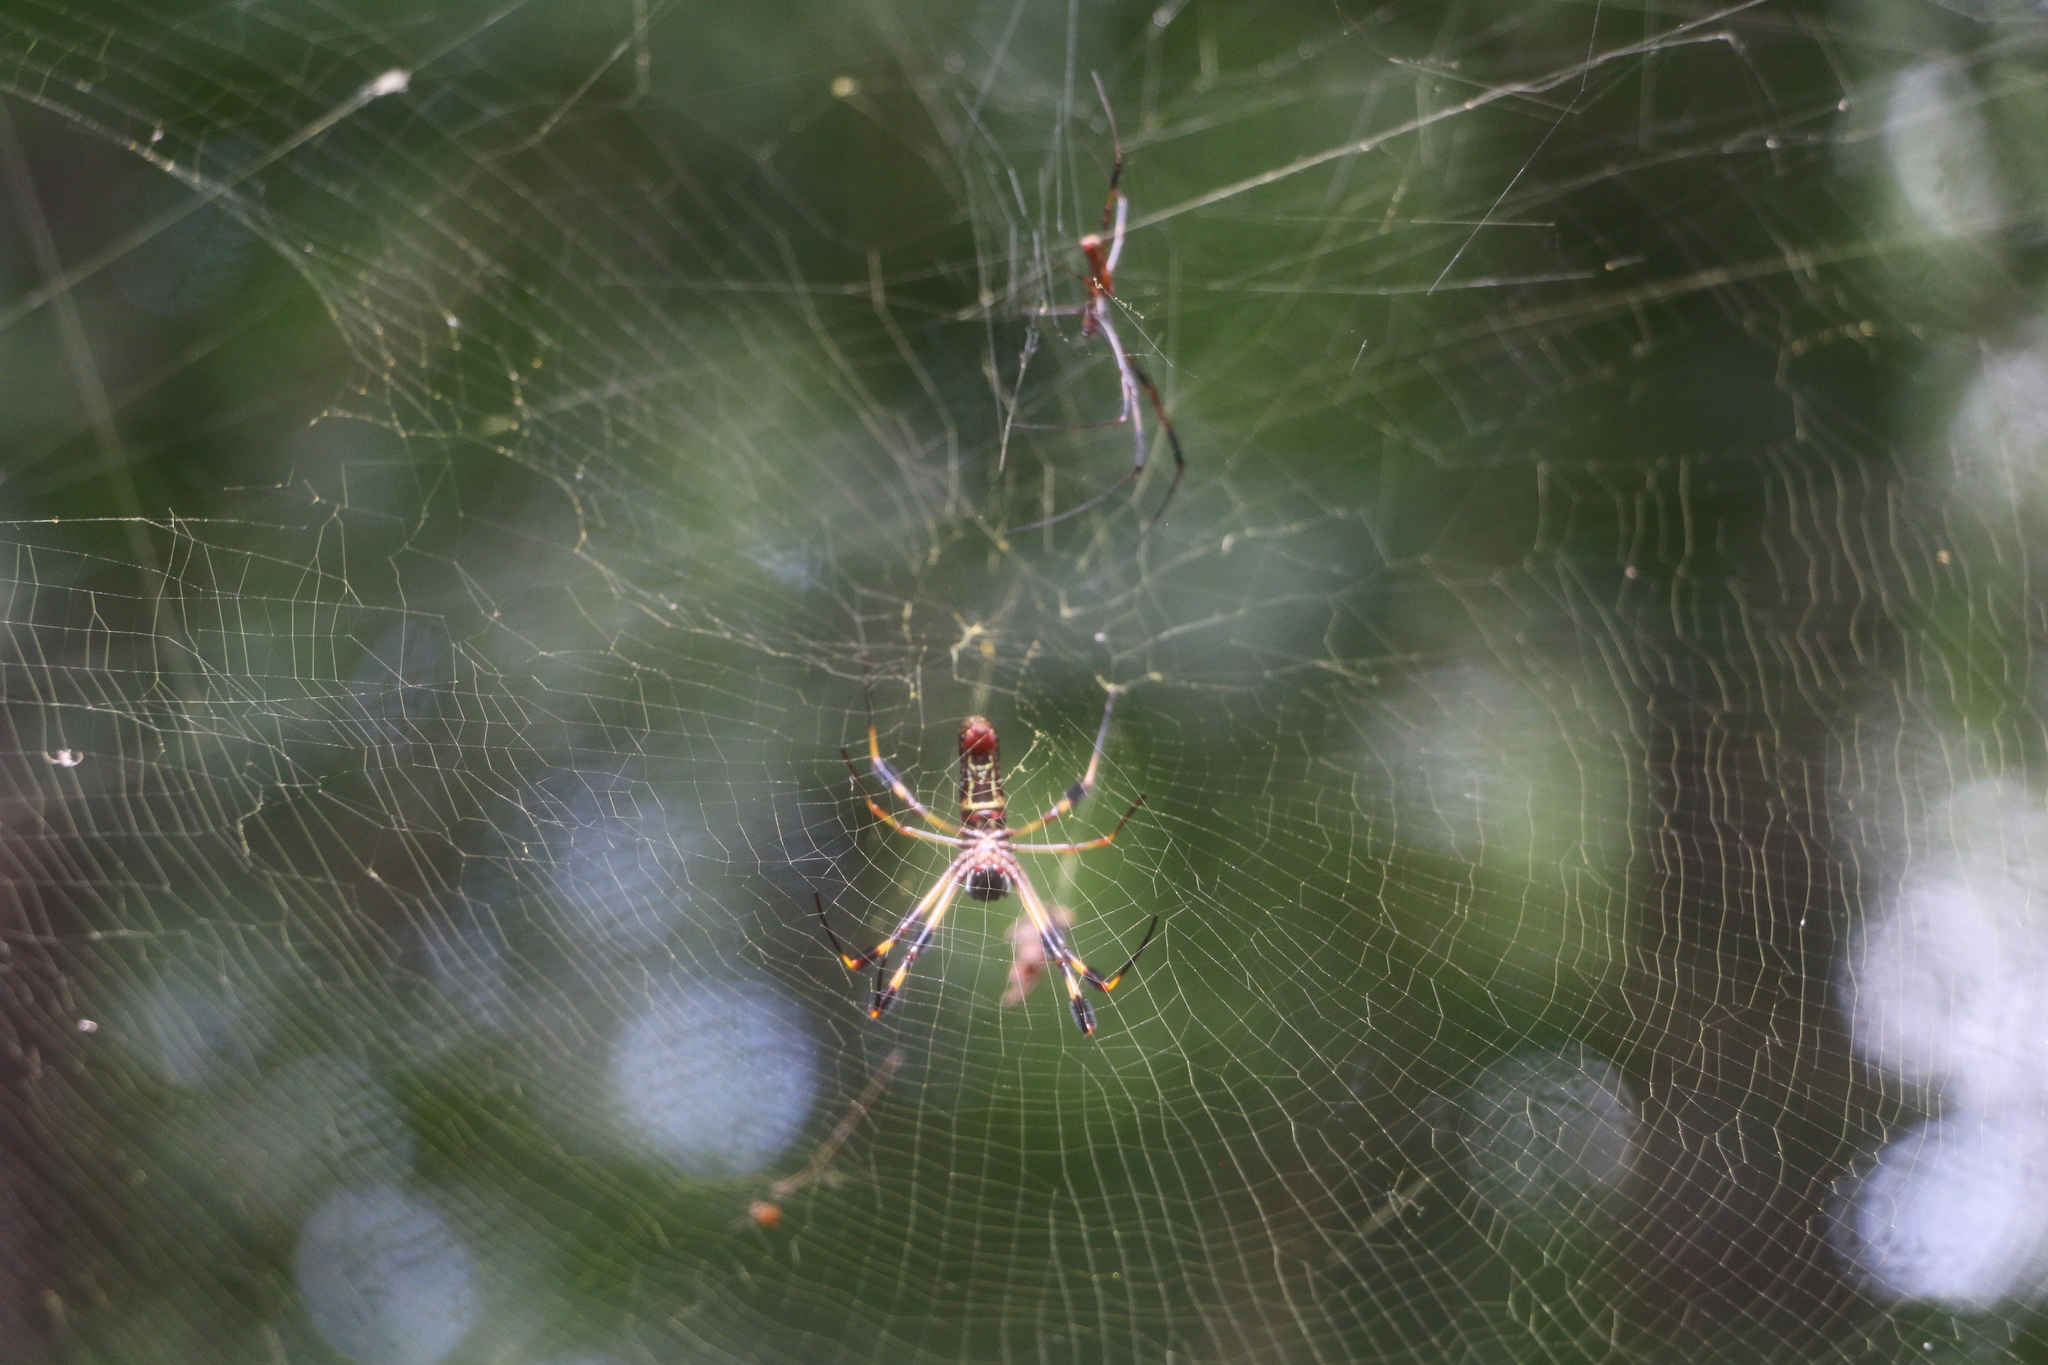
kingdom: Animalia
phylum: Arthropoda
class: Arachnida
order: Araneae
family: Araneidae
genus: Trichonephila
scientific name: Trichonephila clavipes
